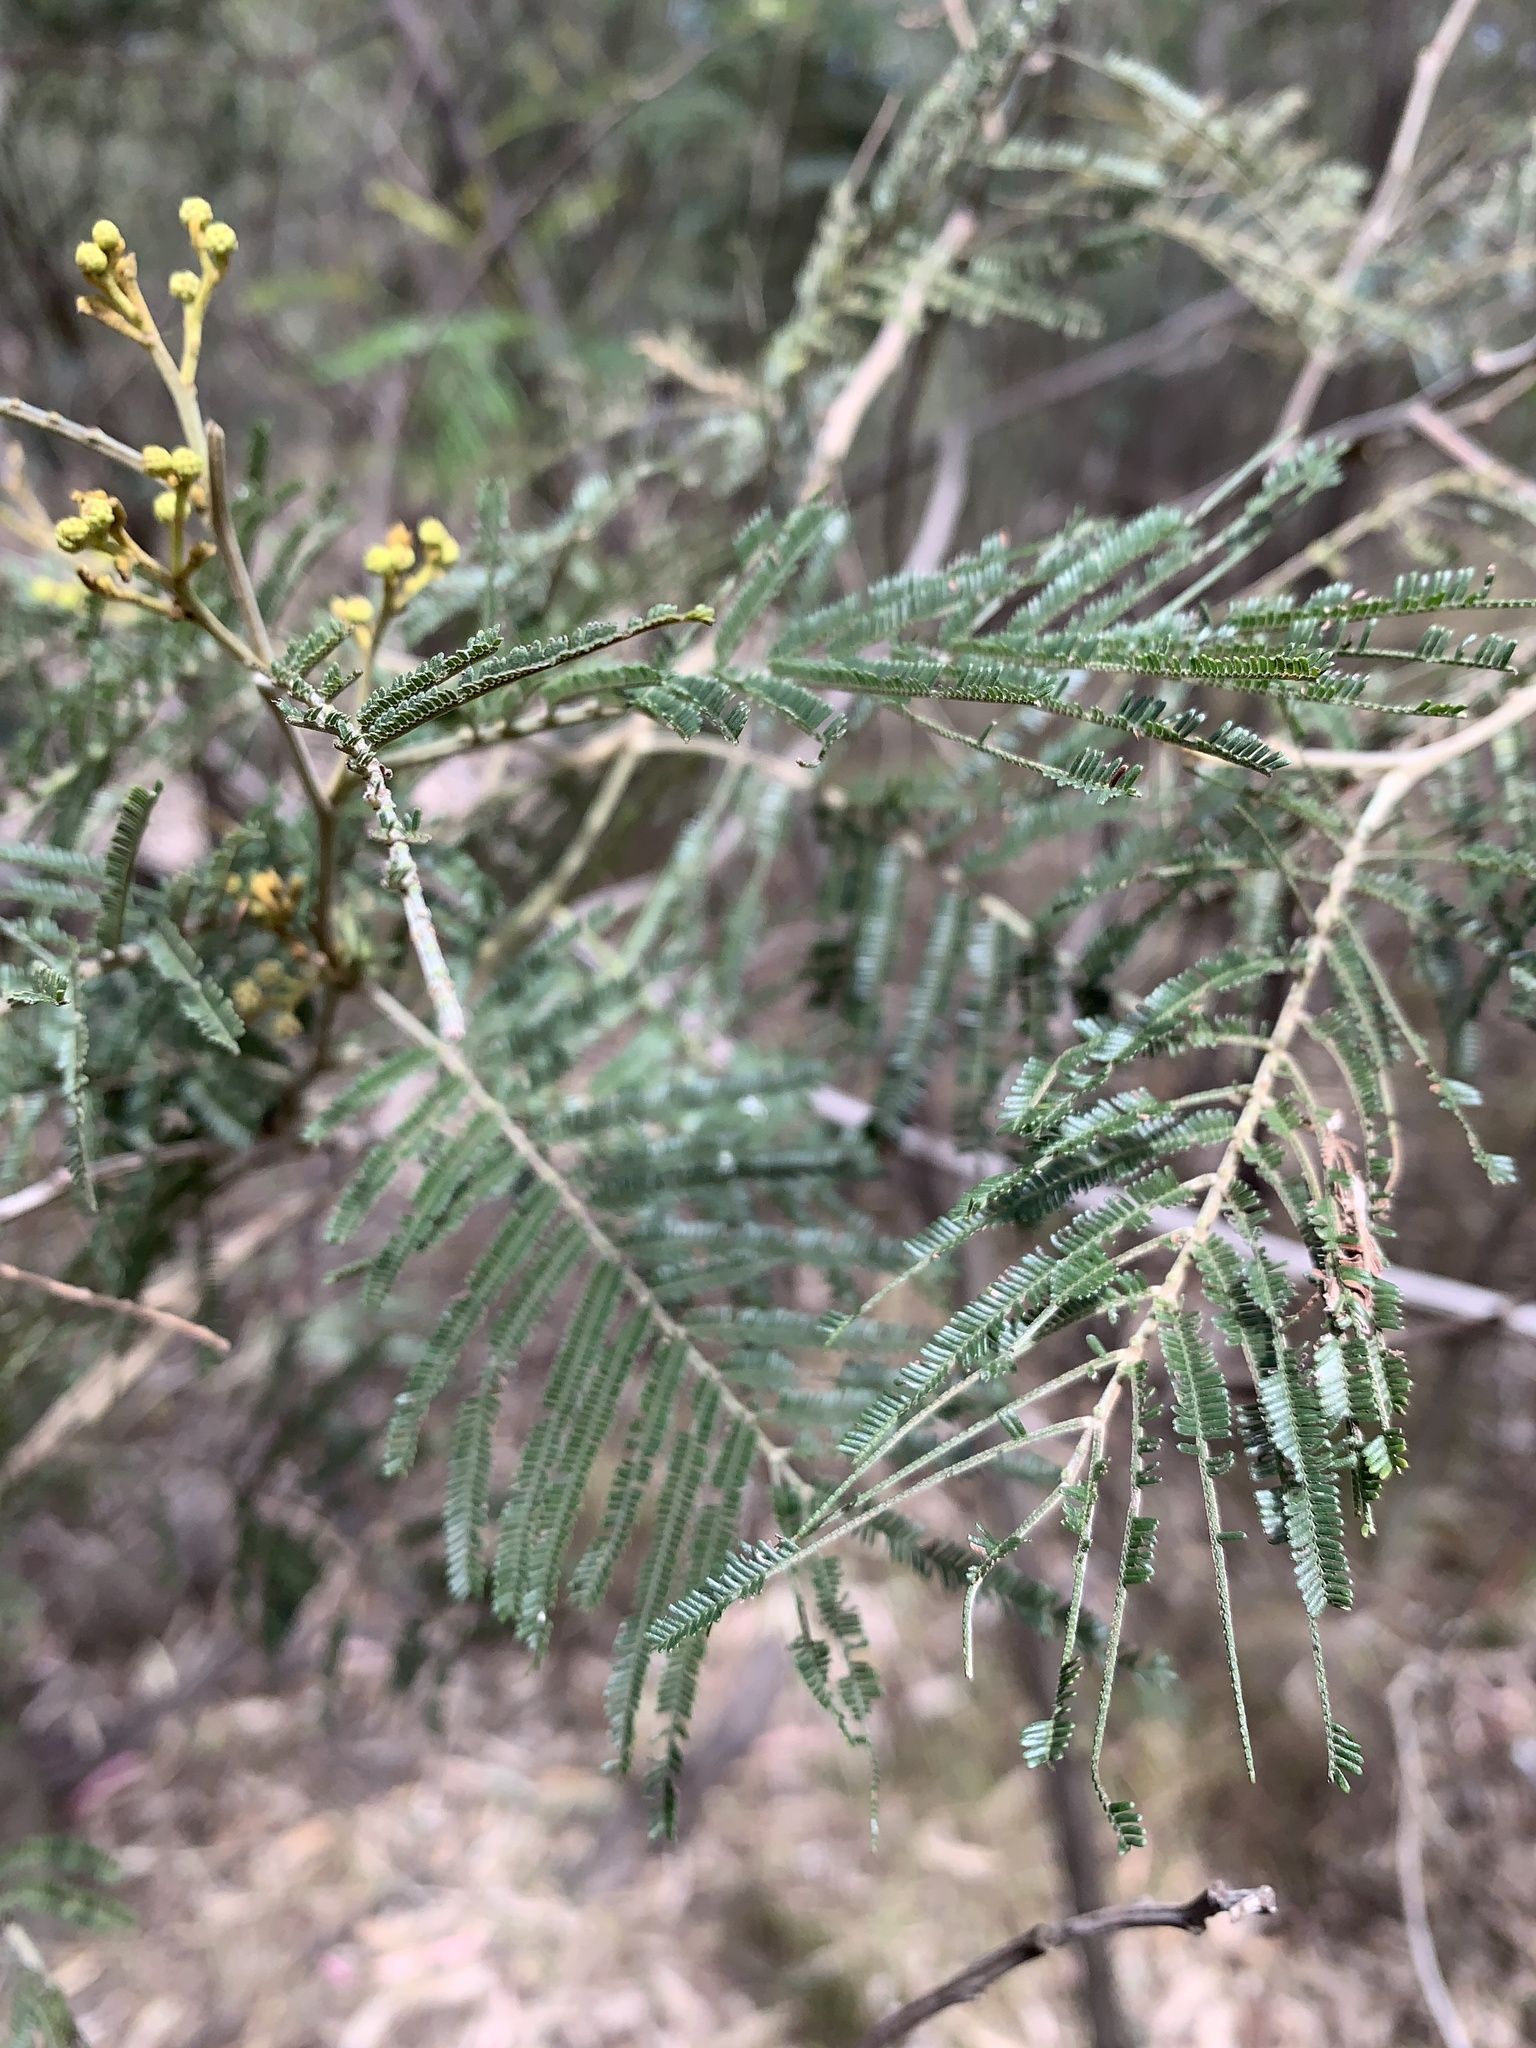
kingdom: Plantae
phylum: Tracheophyta
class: Magnoliopsida
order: Fabales
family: Fabaceae
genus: Acacia
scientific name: Acacia mearnsii
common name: Black wattle
